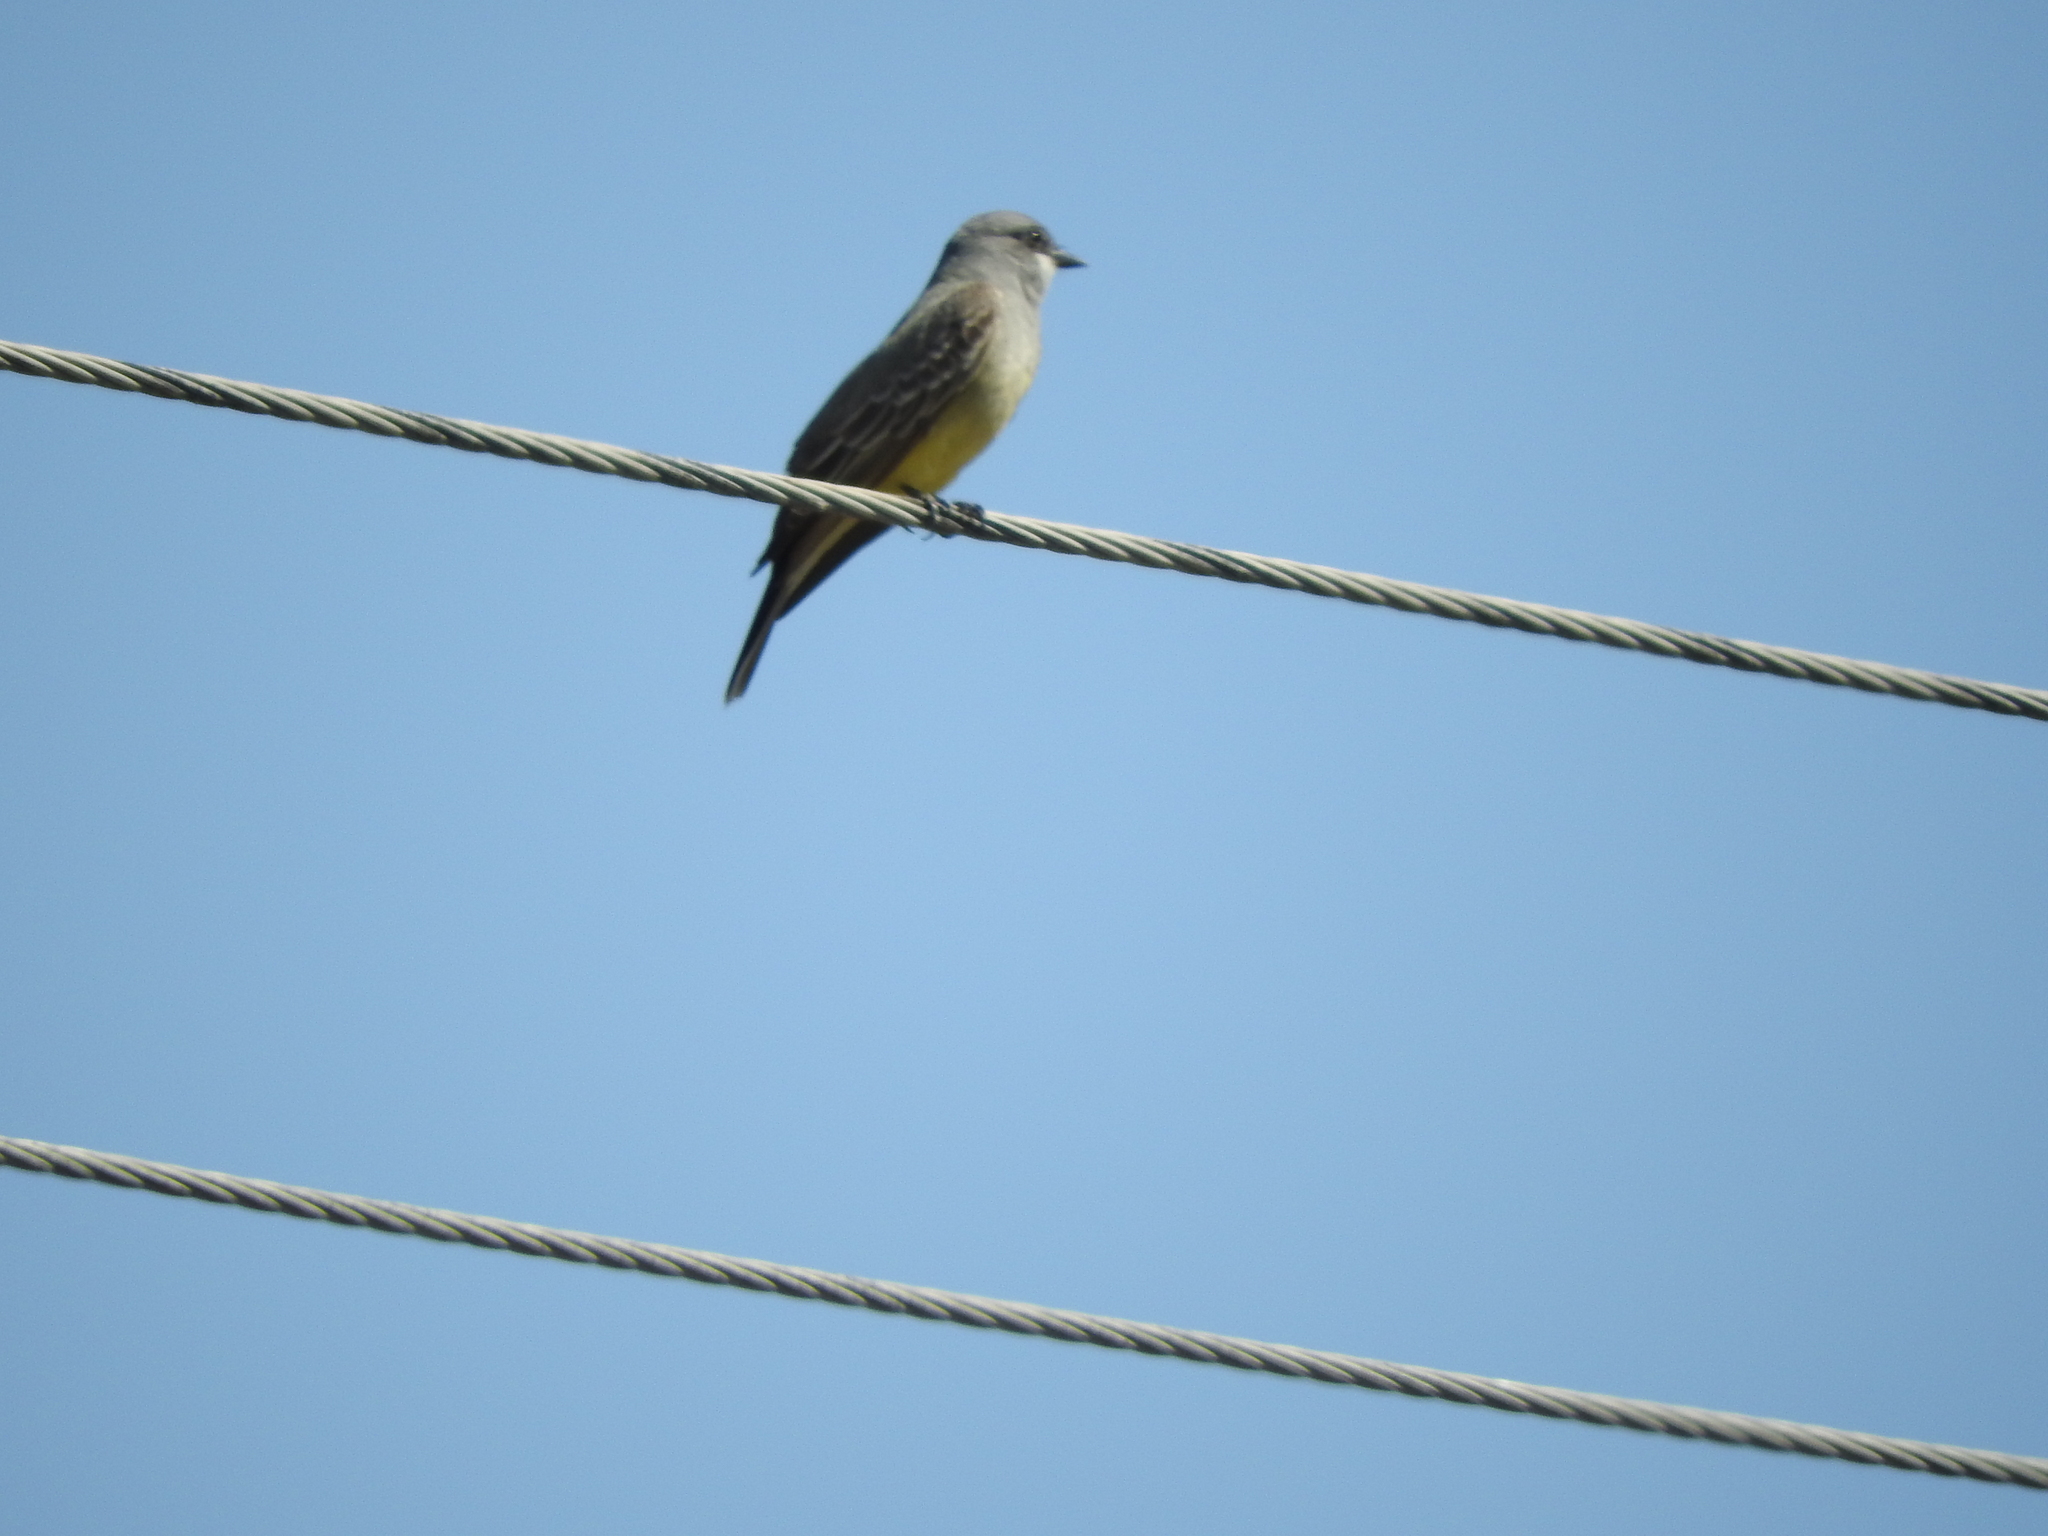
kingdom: Animalia
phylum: Chordata
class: Aves
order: Passeriformes
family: Tyrannidae
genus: Tyrannus
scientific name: Tyrannus vociferans
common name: Cassin's kingbird
